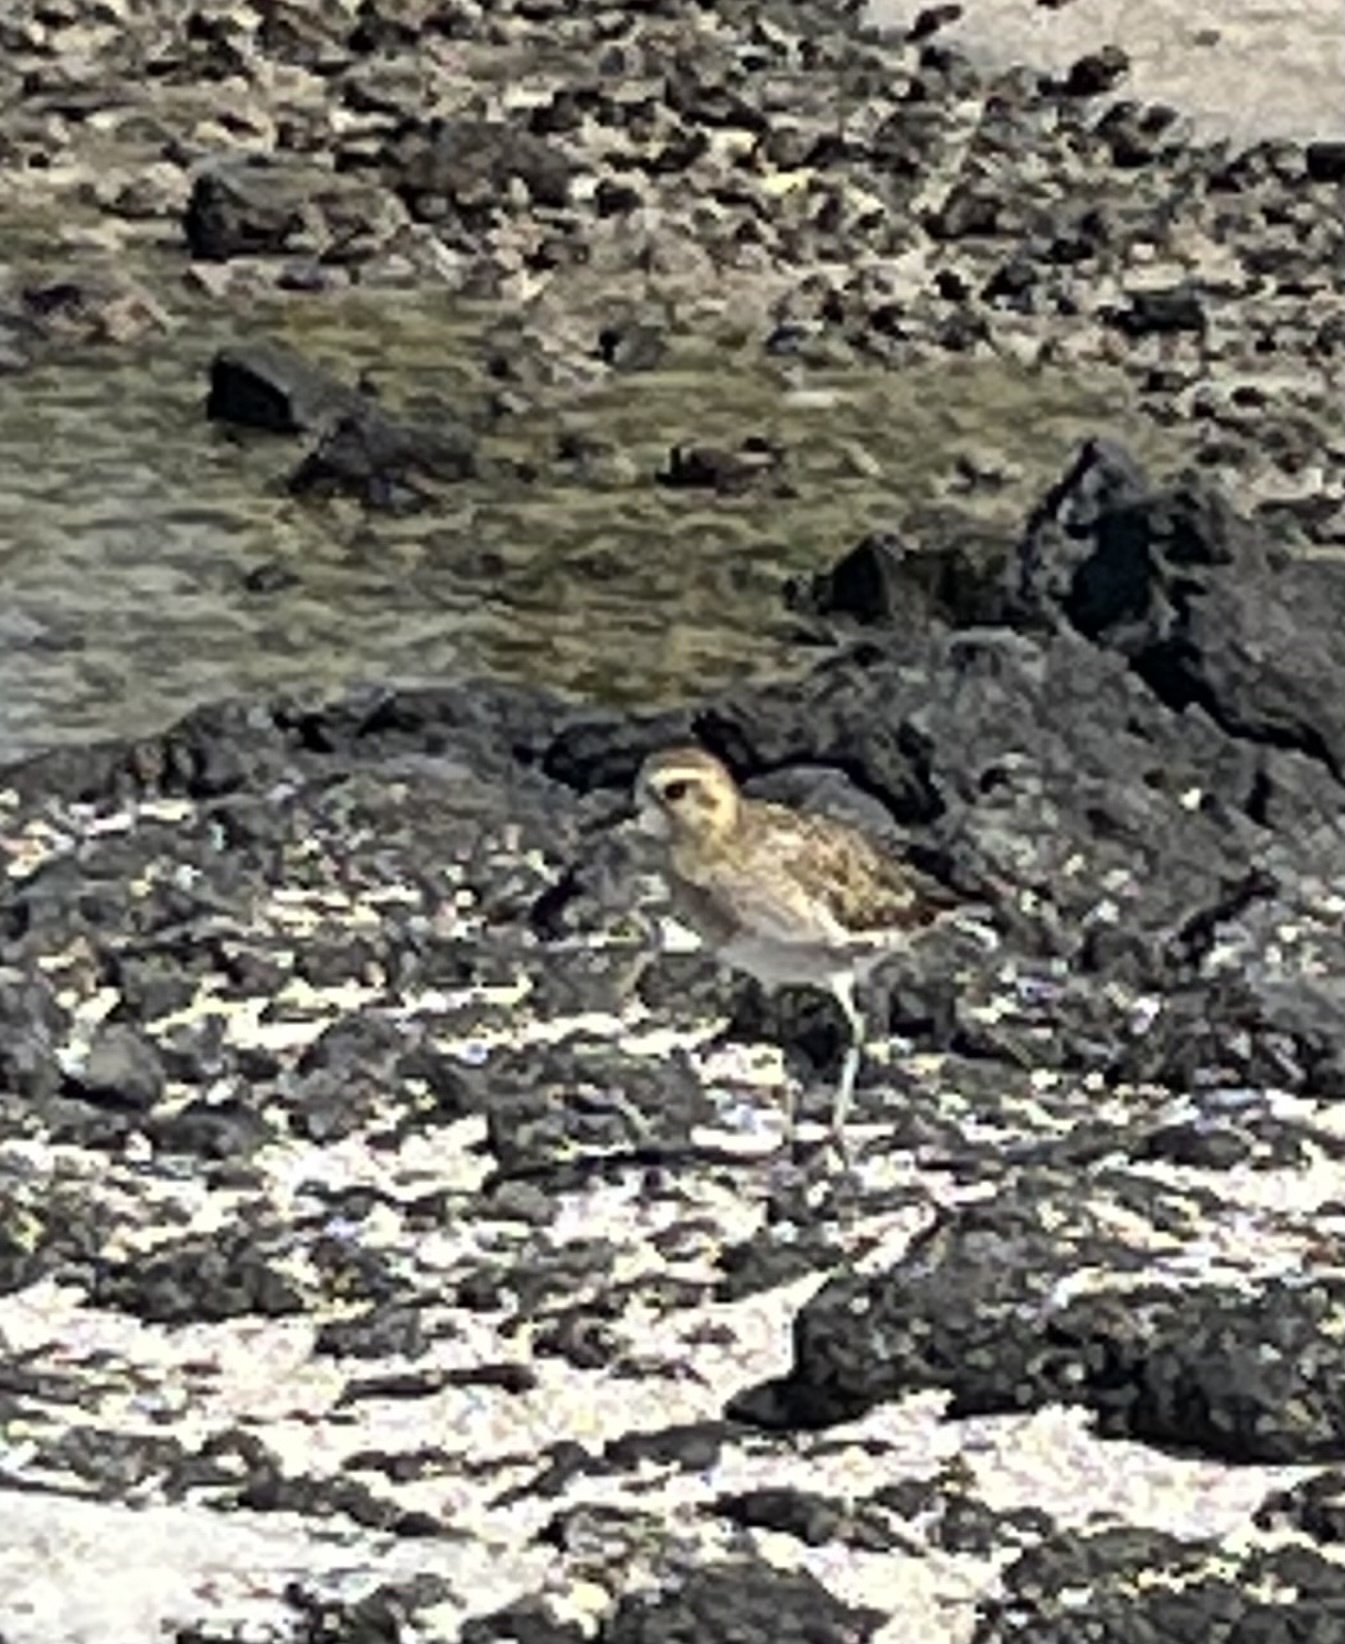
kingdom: Animalia
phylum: Chordata
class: Aves
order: Charadriiformes
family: Charadriidae
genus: Pluvialis
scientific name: Pluvialis fulva
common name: Pacific golden plover
